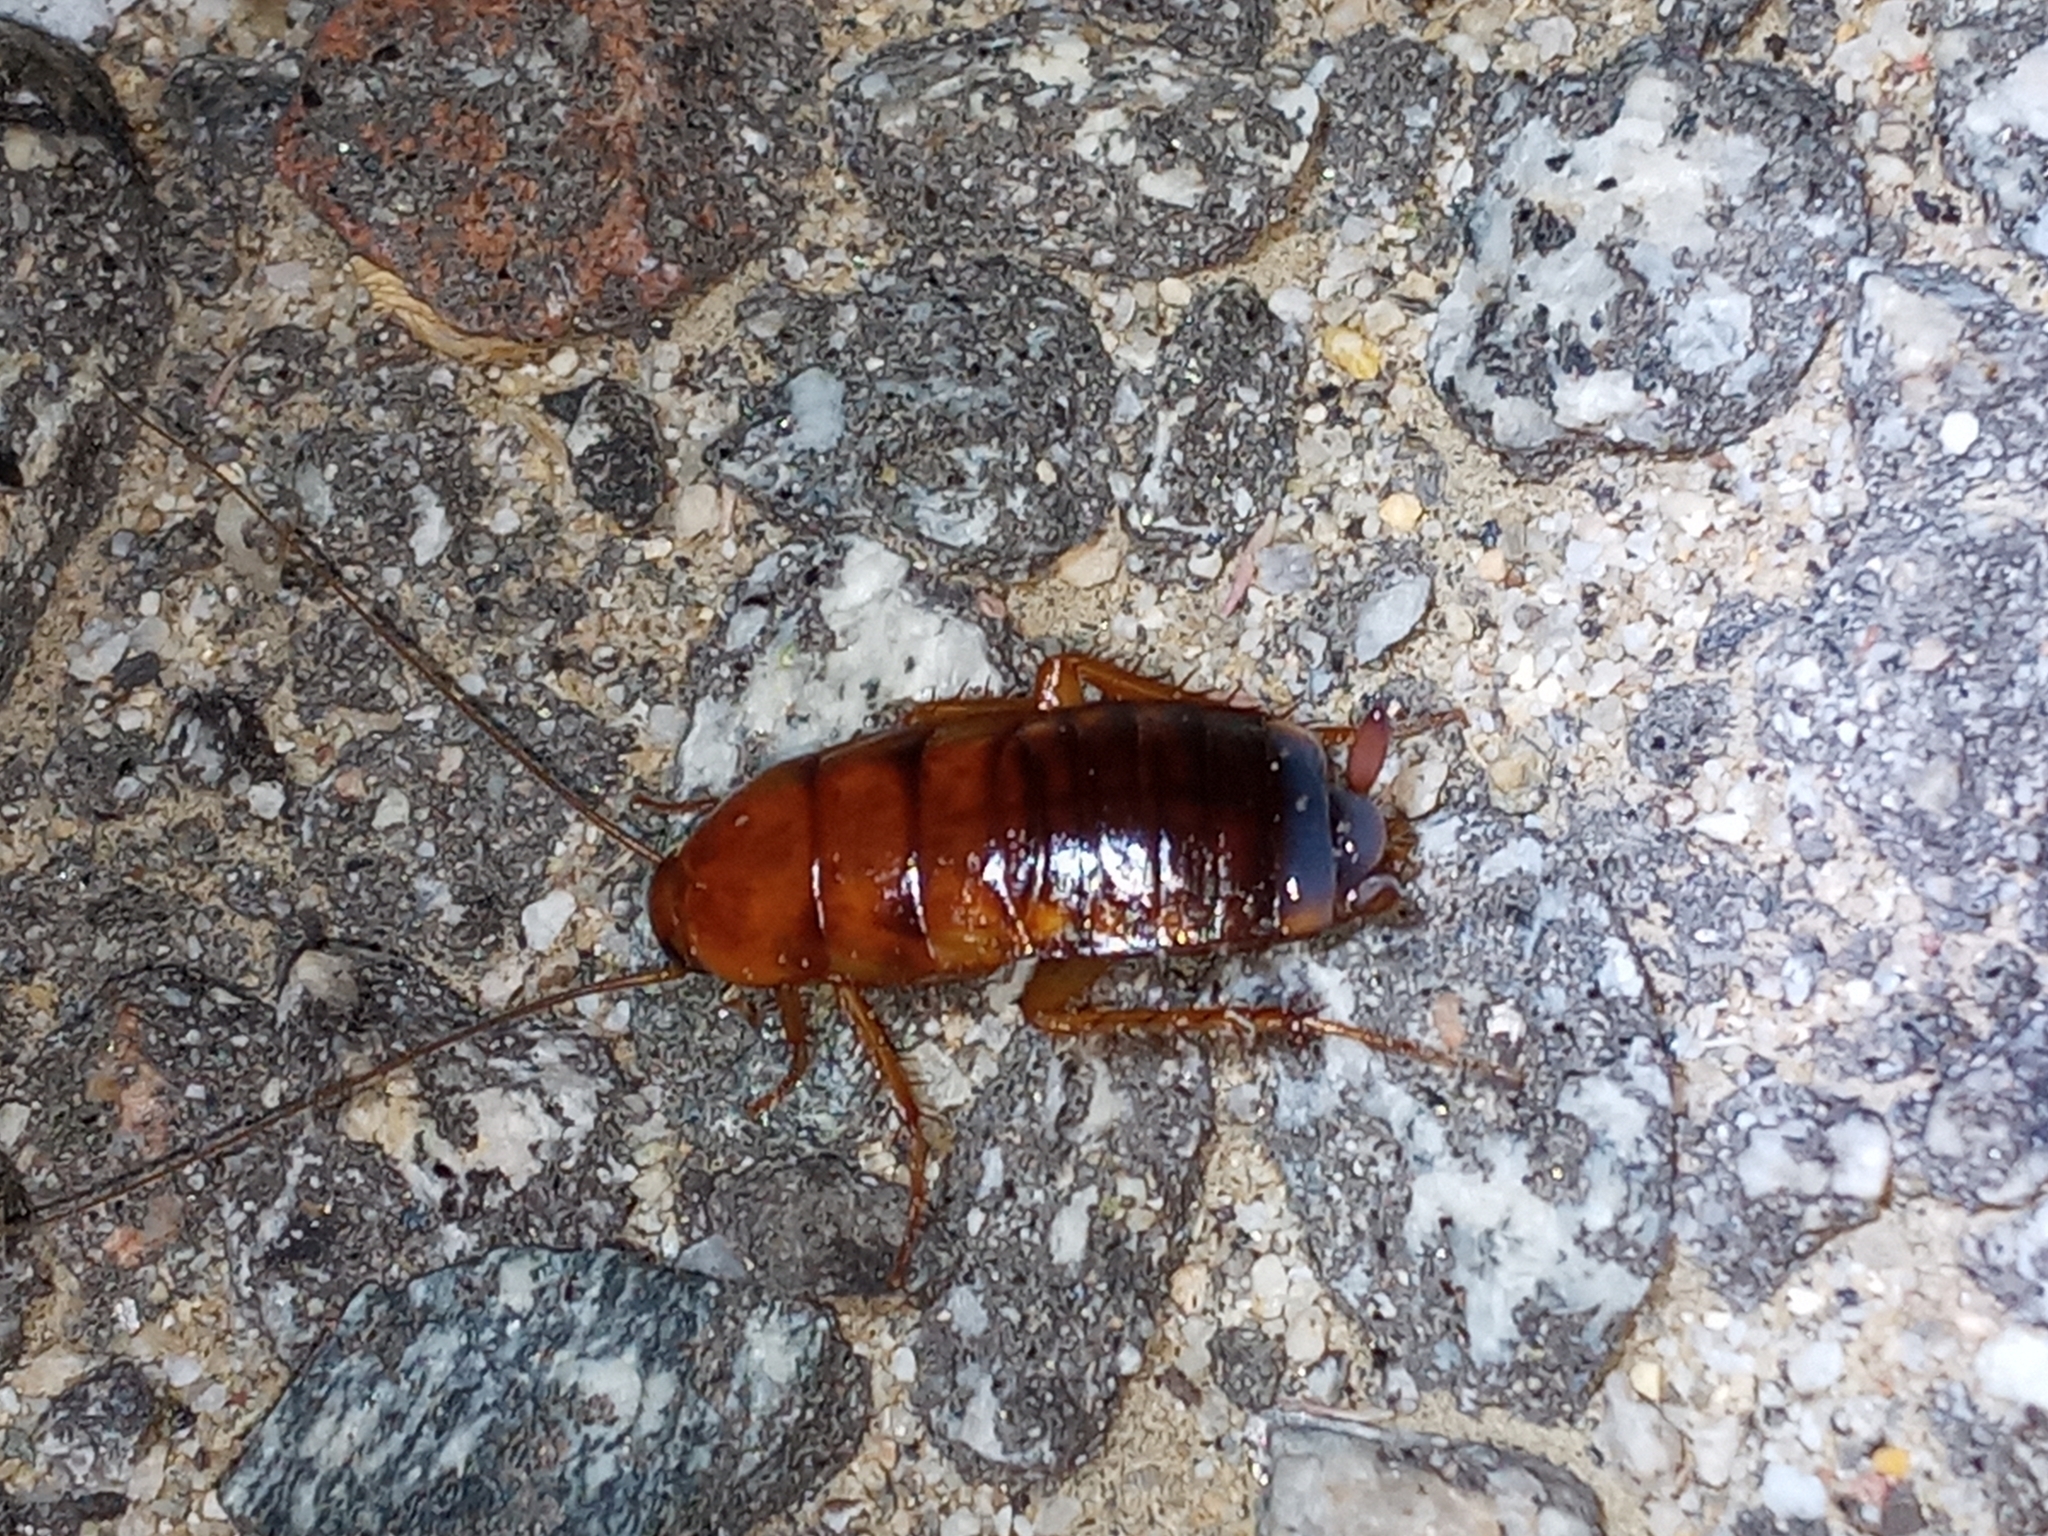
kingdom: Animalia
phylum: Arthropoda
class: Insecta
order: Blattodea
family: Blattidae
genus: Periplaneta
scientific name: Periplaneta lateralis
